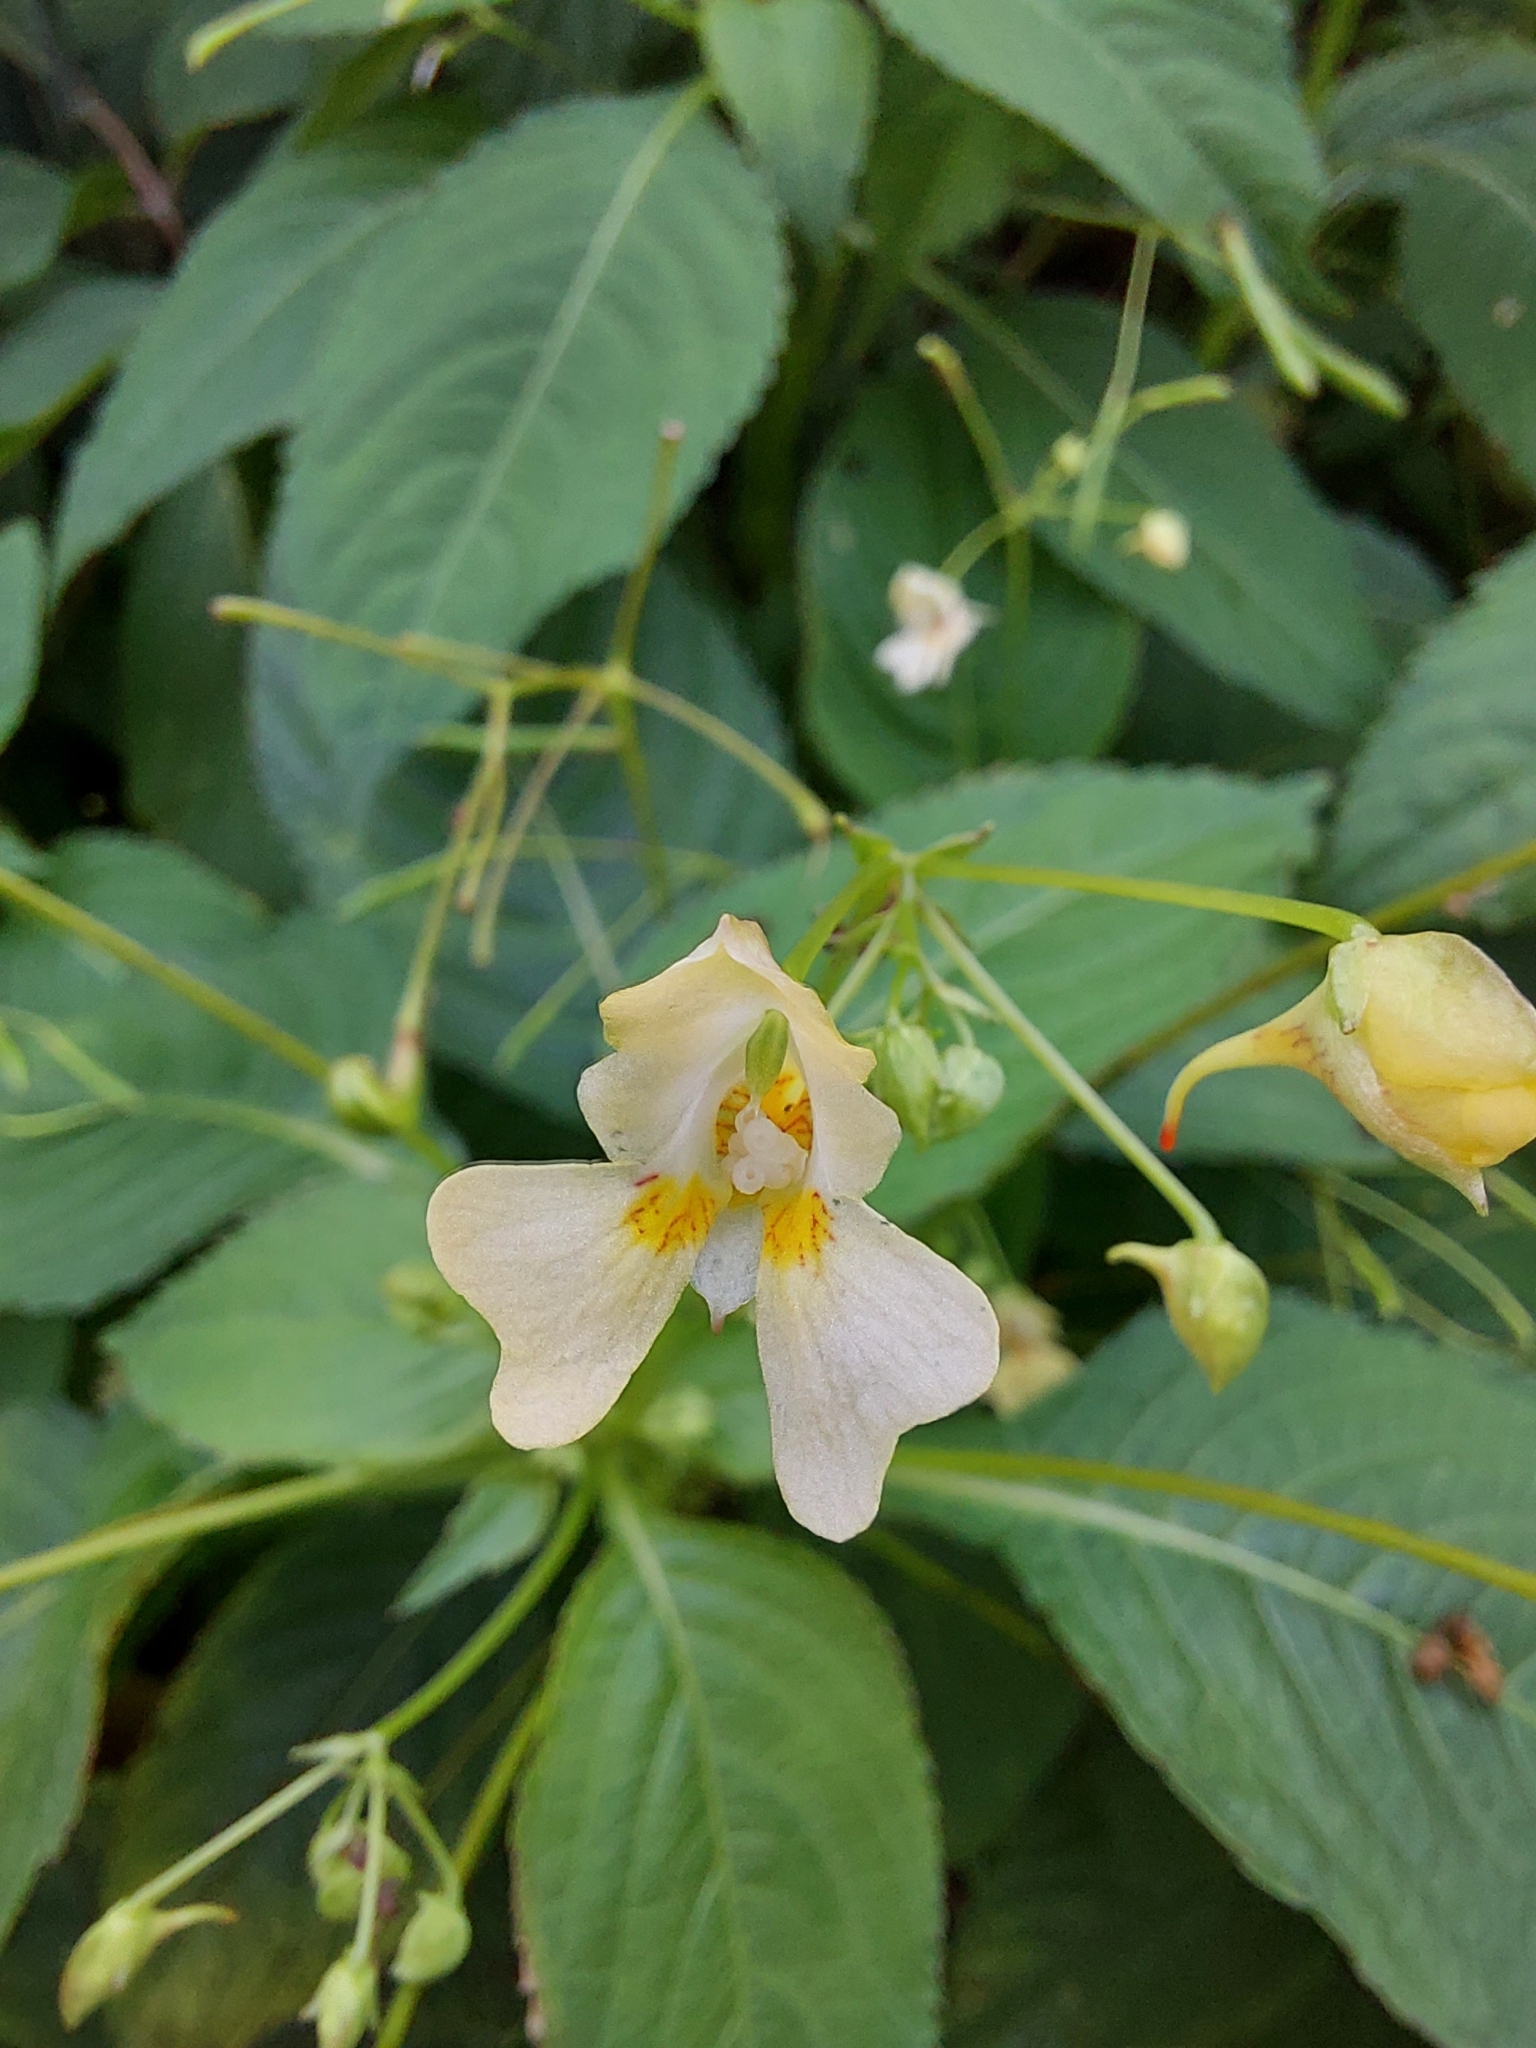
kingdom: Plantae
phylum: Tracheophyta
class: Magnoliopsida
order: Ericales
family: Balsaminaceae
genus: Impatiens
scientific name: Impatiens parviflora
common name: Small balsam
